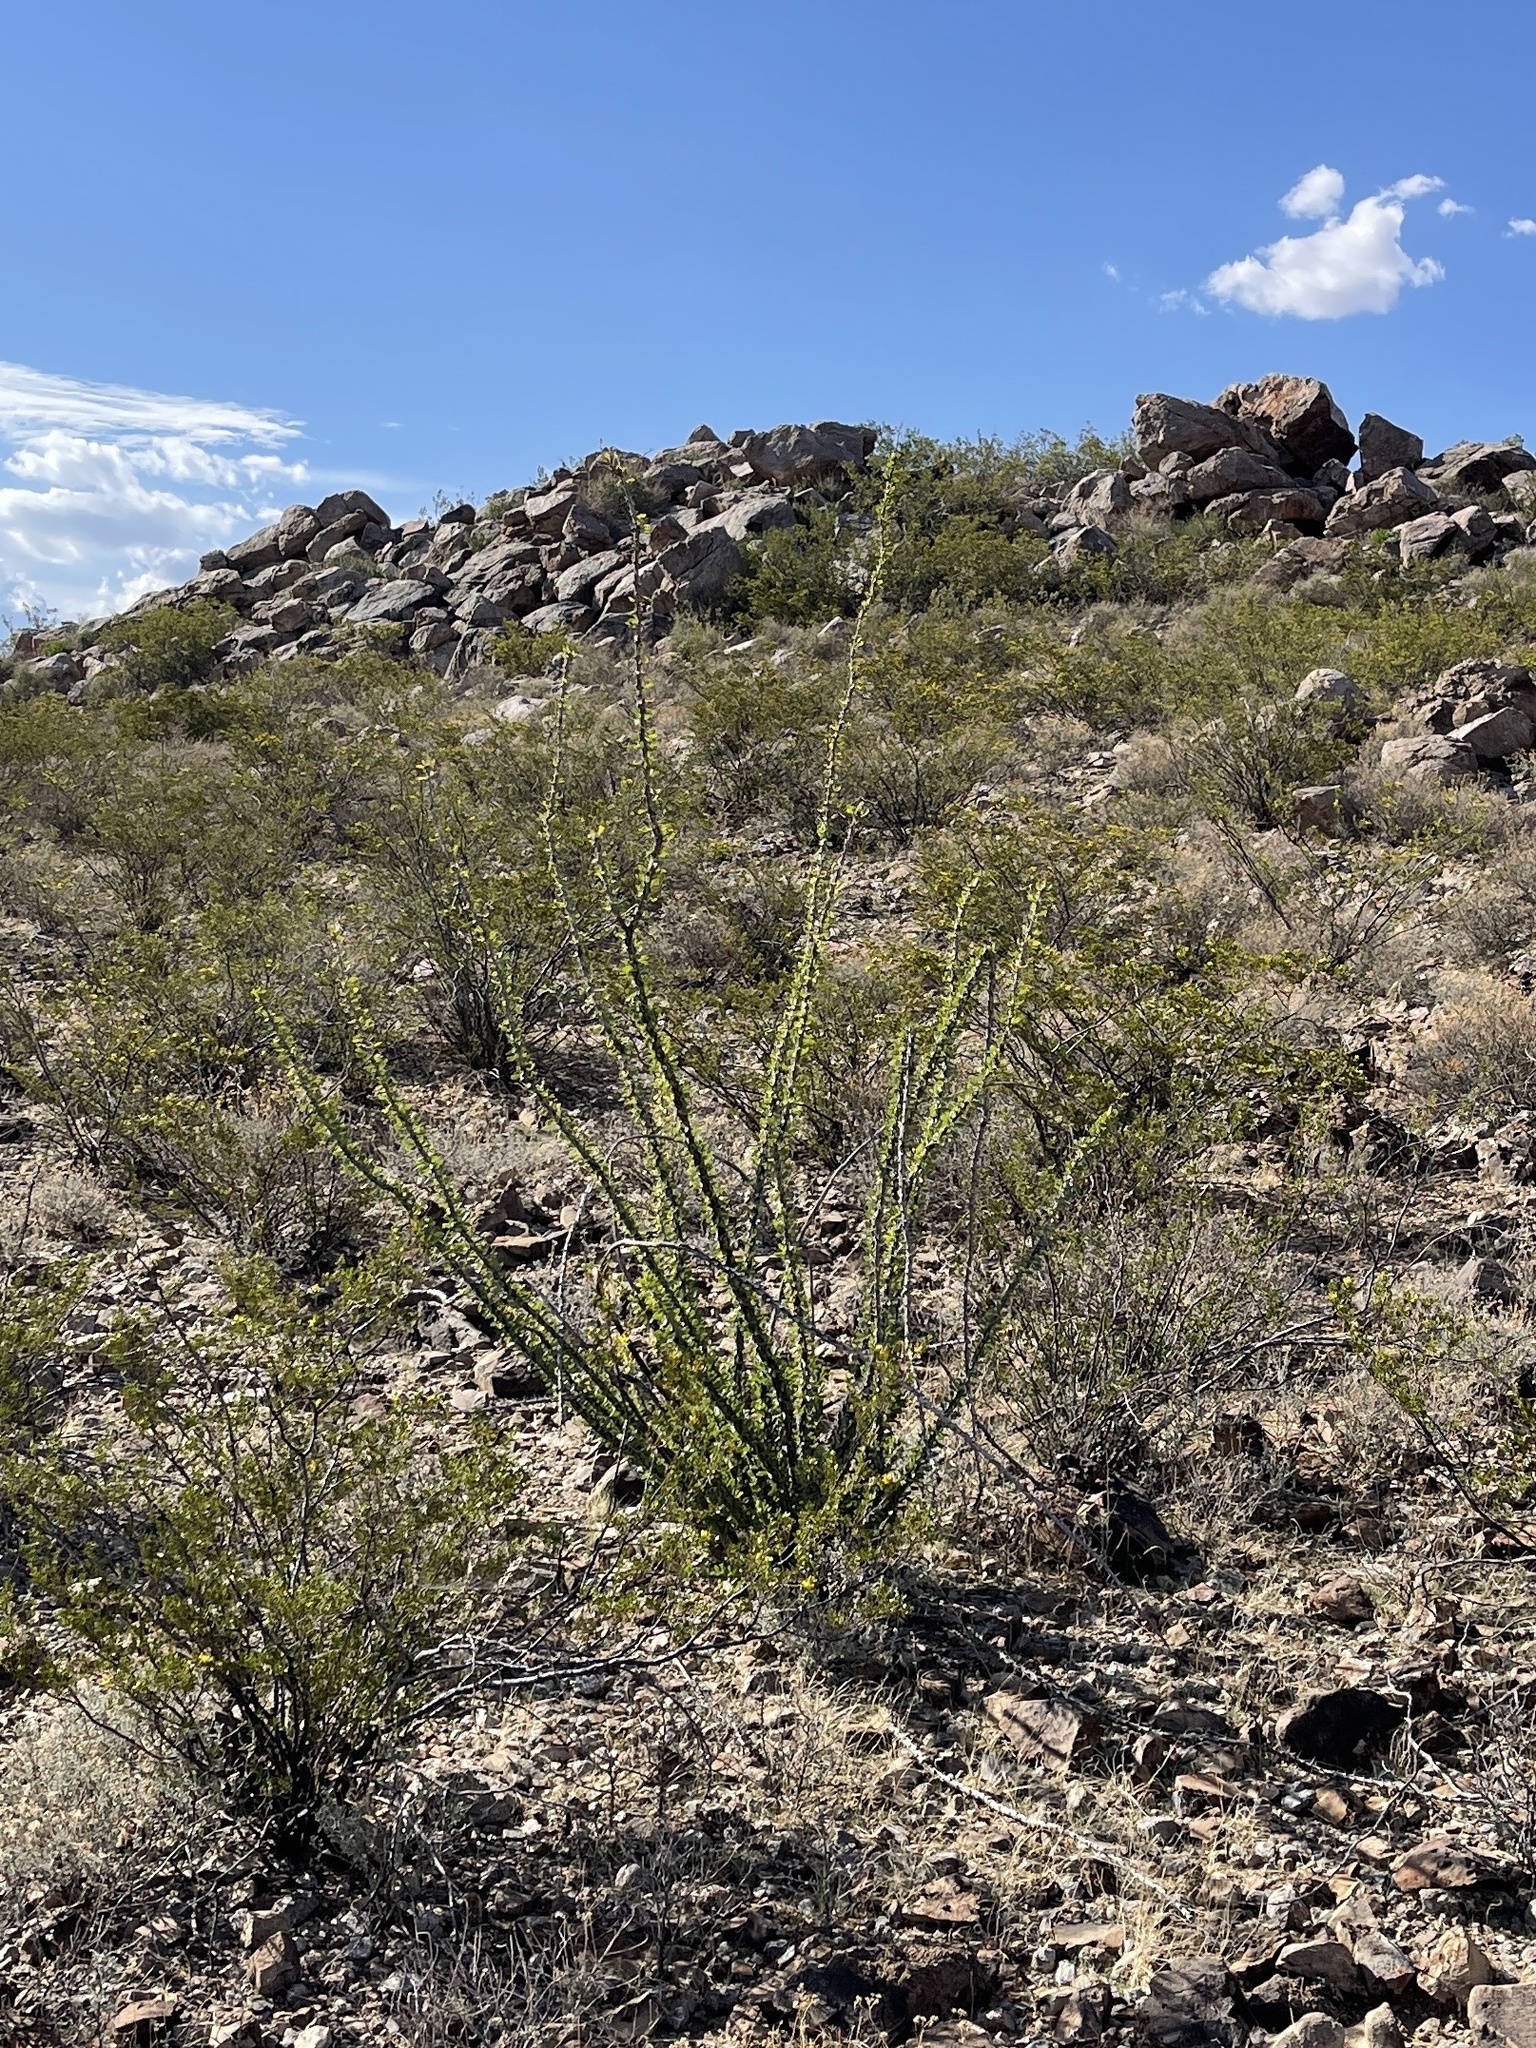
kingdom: Plantae
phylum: Tracheophyta
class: Magnoliopsida
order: Ericales
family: Fouquieriaceae
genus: Fouquieria
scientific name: Fouquieria splendens
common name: Vine-cactus
